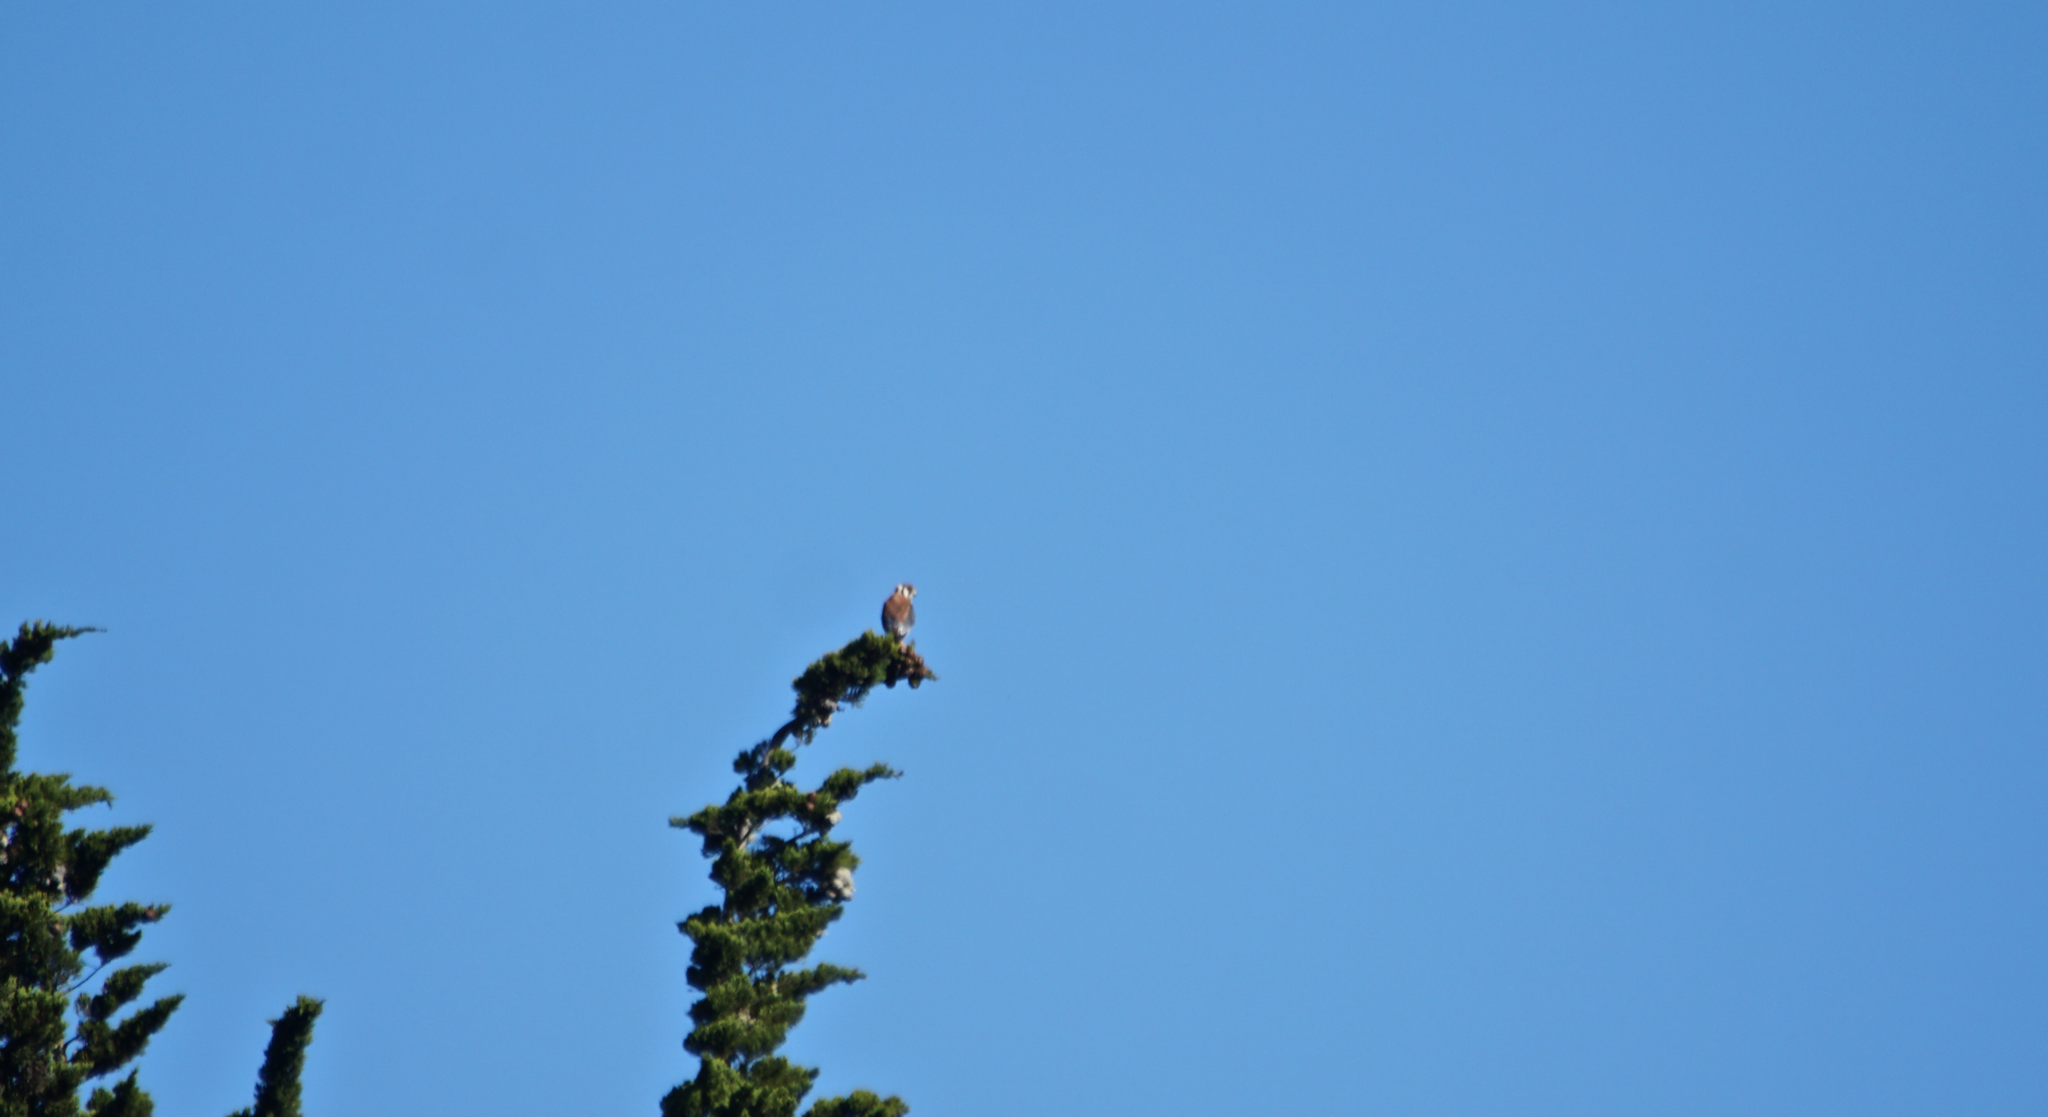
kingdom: Animalia
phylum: Chordata
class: Aves
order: Falconiformes
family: Falconidae
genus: Falco
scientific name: Falco sparverius
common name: American kestrel
